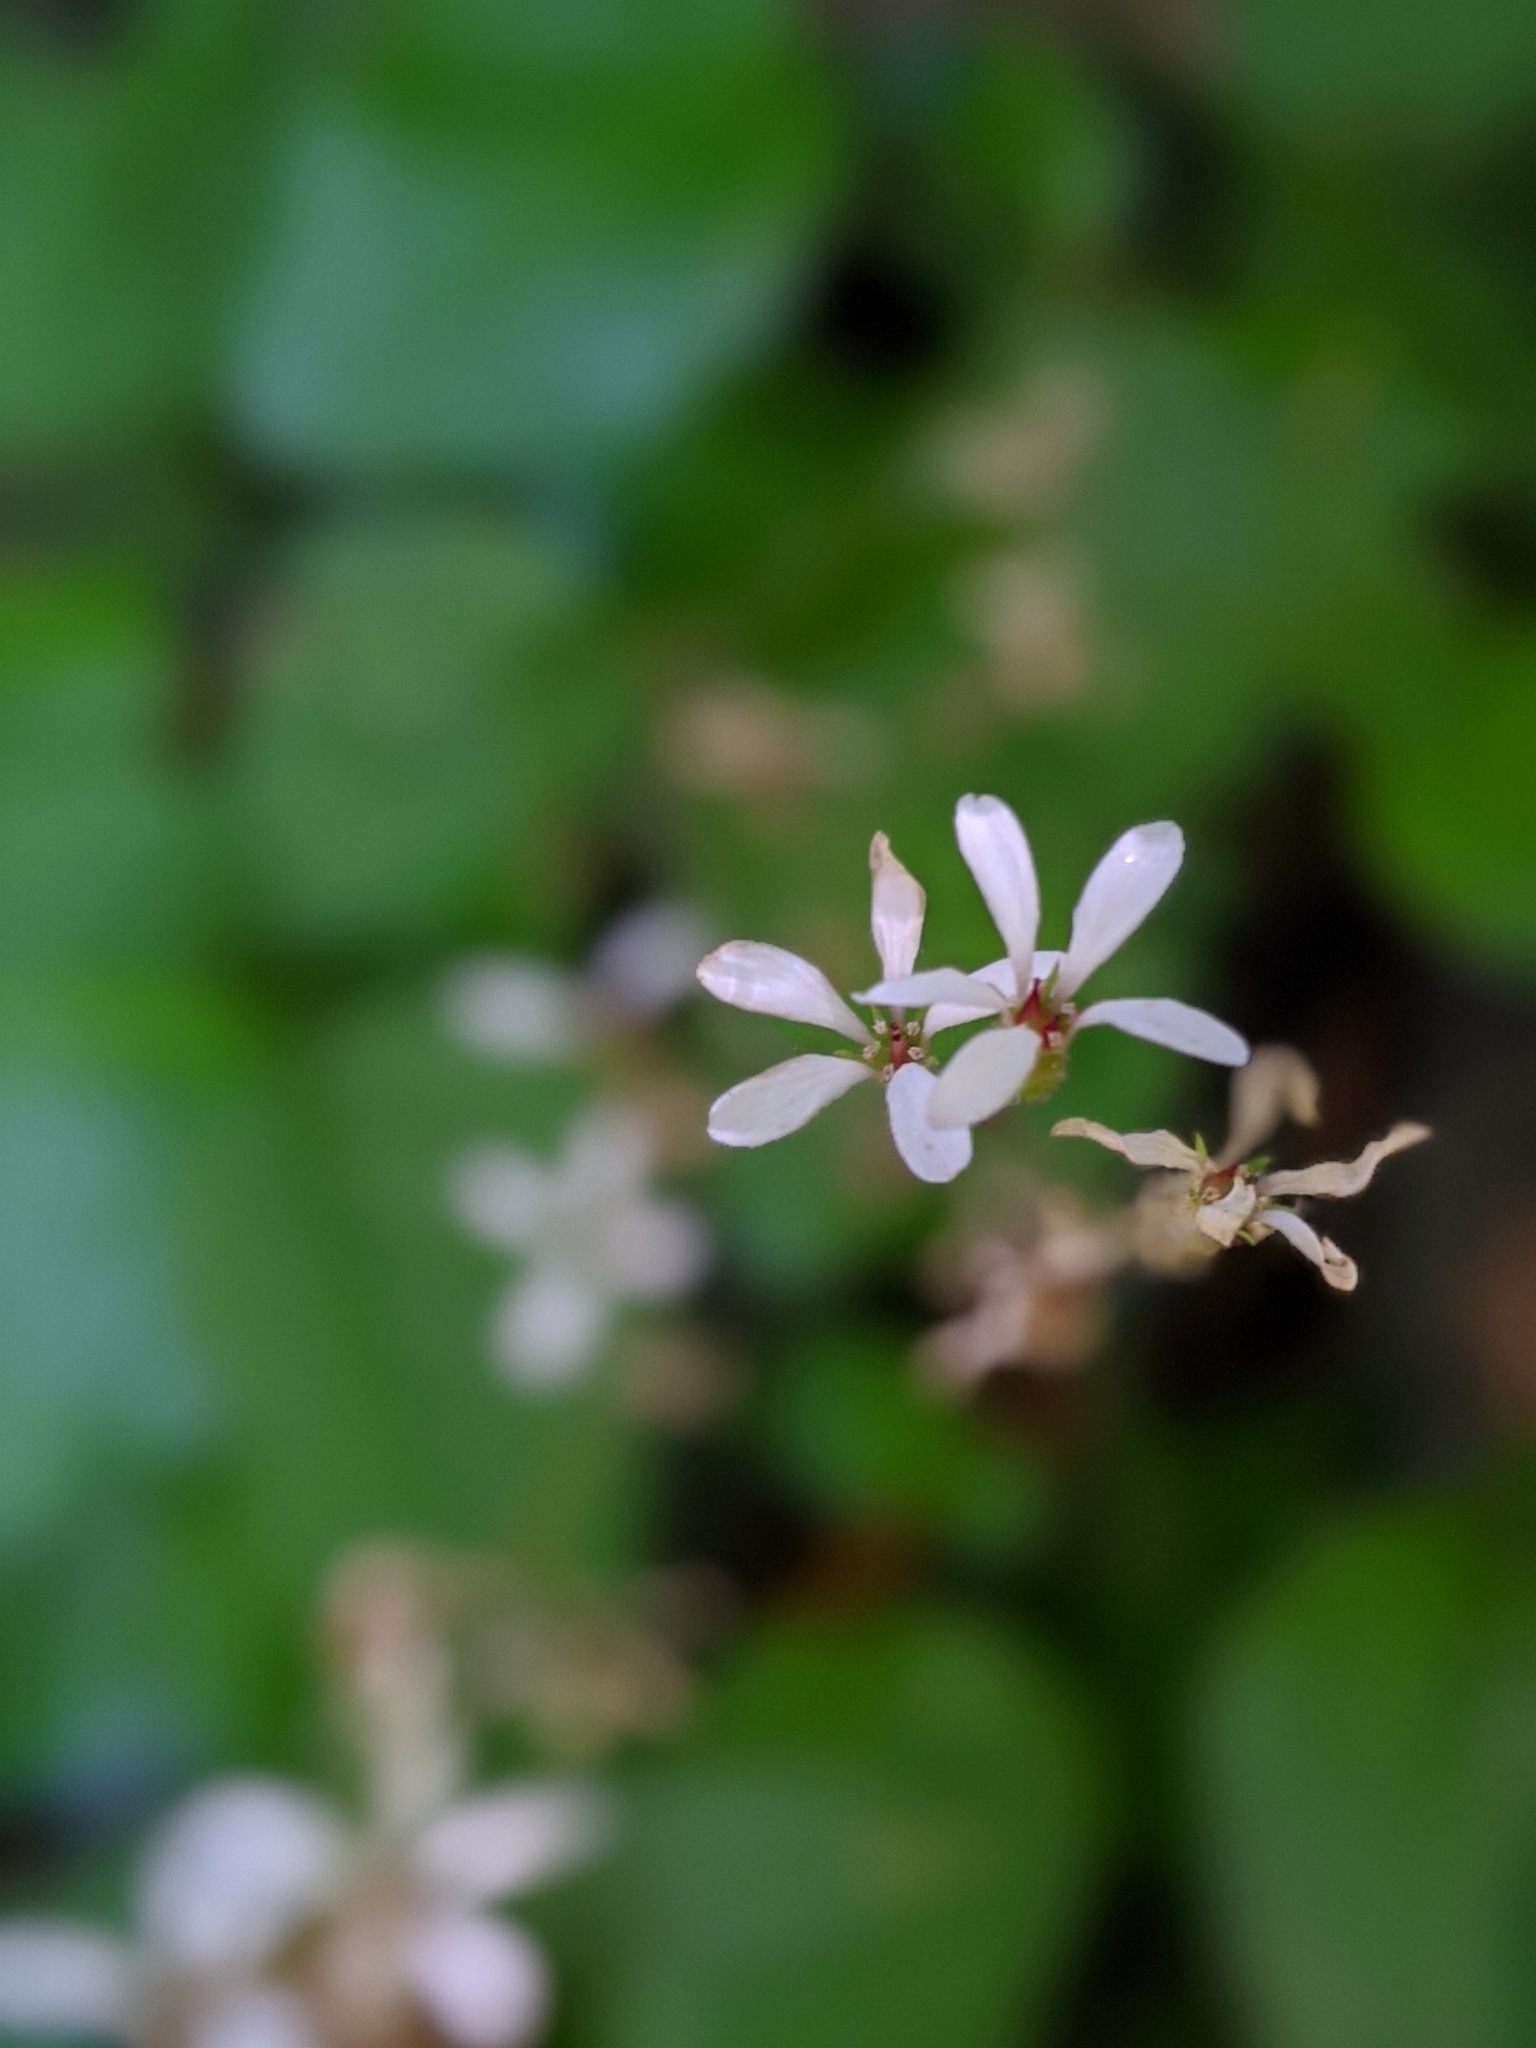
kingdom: Plantae
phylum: Tracheophyta
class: Magnoliopsida
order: Saxifragales
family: Saxifragaceae
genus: Boykinia
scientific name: Boykinia occidentalis
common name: Coast boykinia
